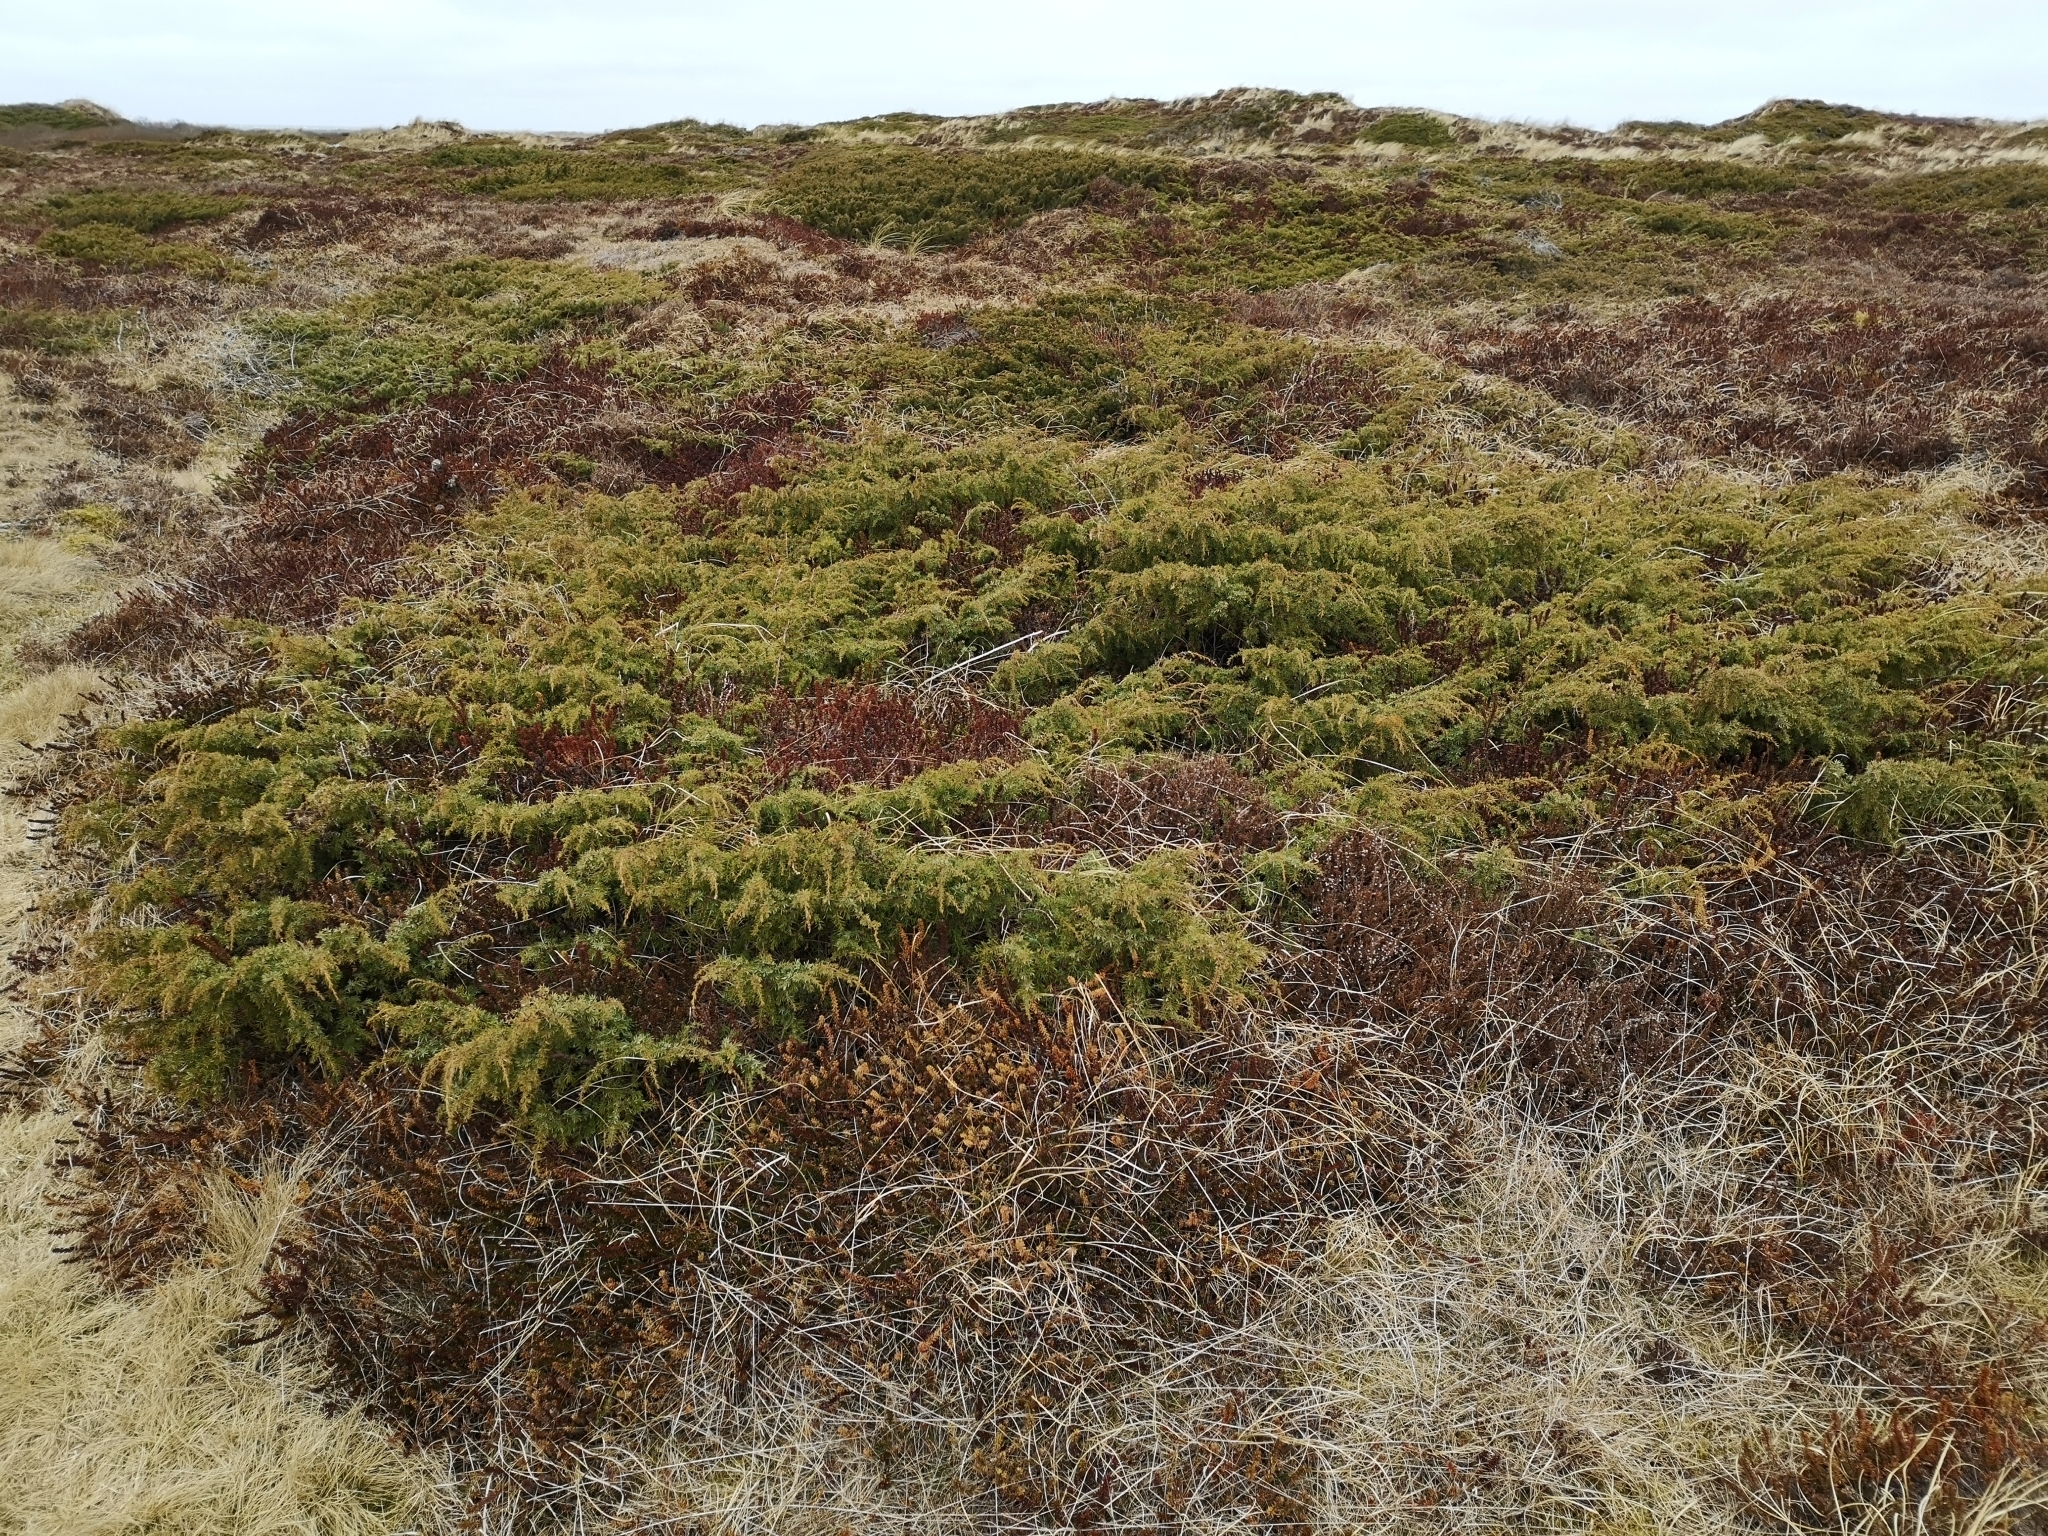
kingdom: Plantae
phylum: Tracheophyta
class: Pinopsida
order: Pinales
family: Cupressaceae
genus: Juniperus
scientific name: Juniperus communis
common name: Common juniper
